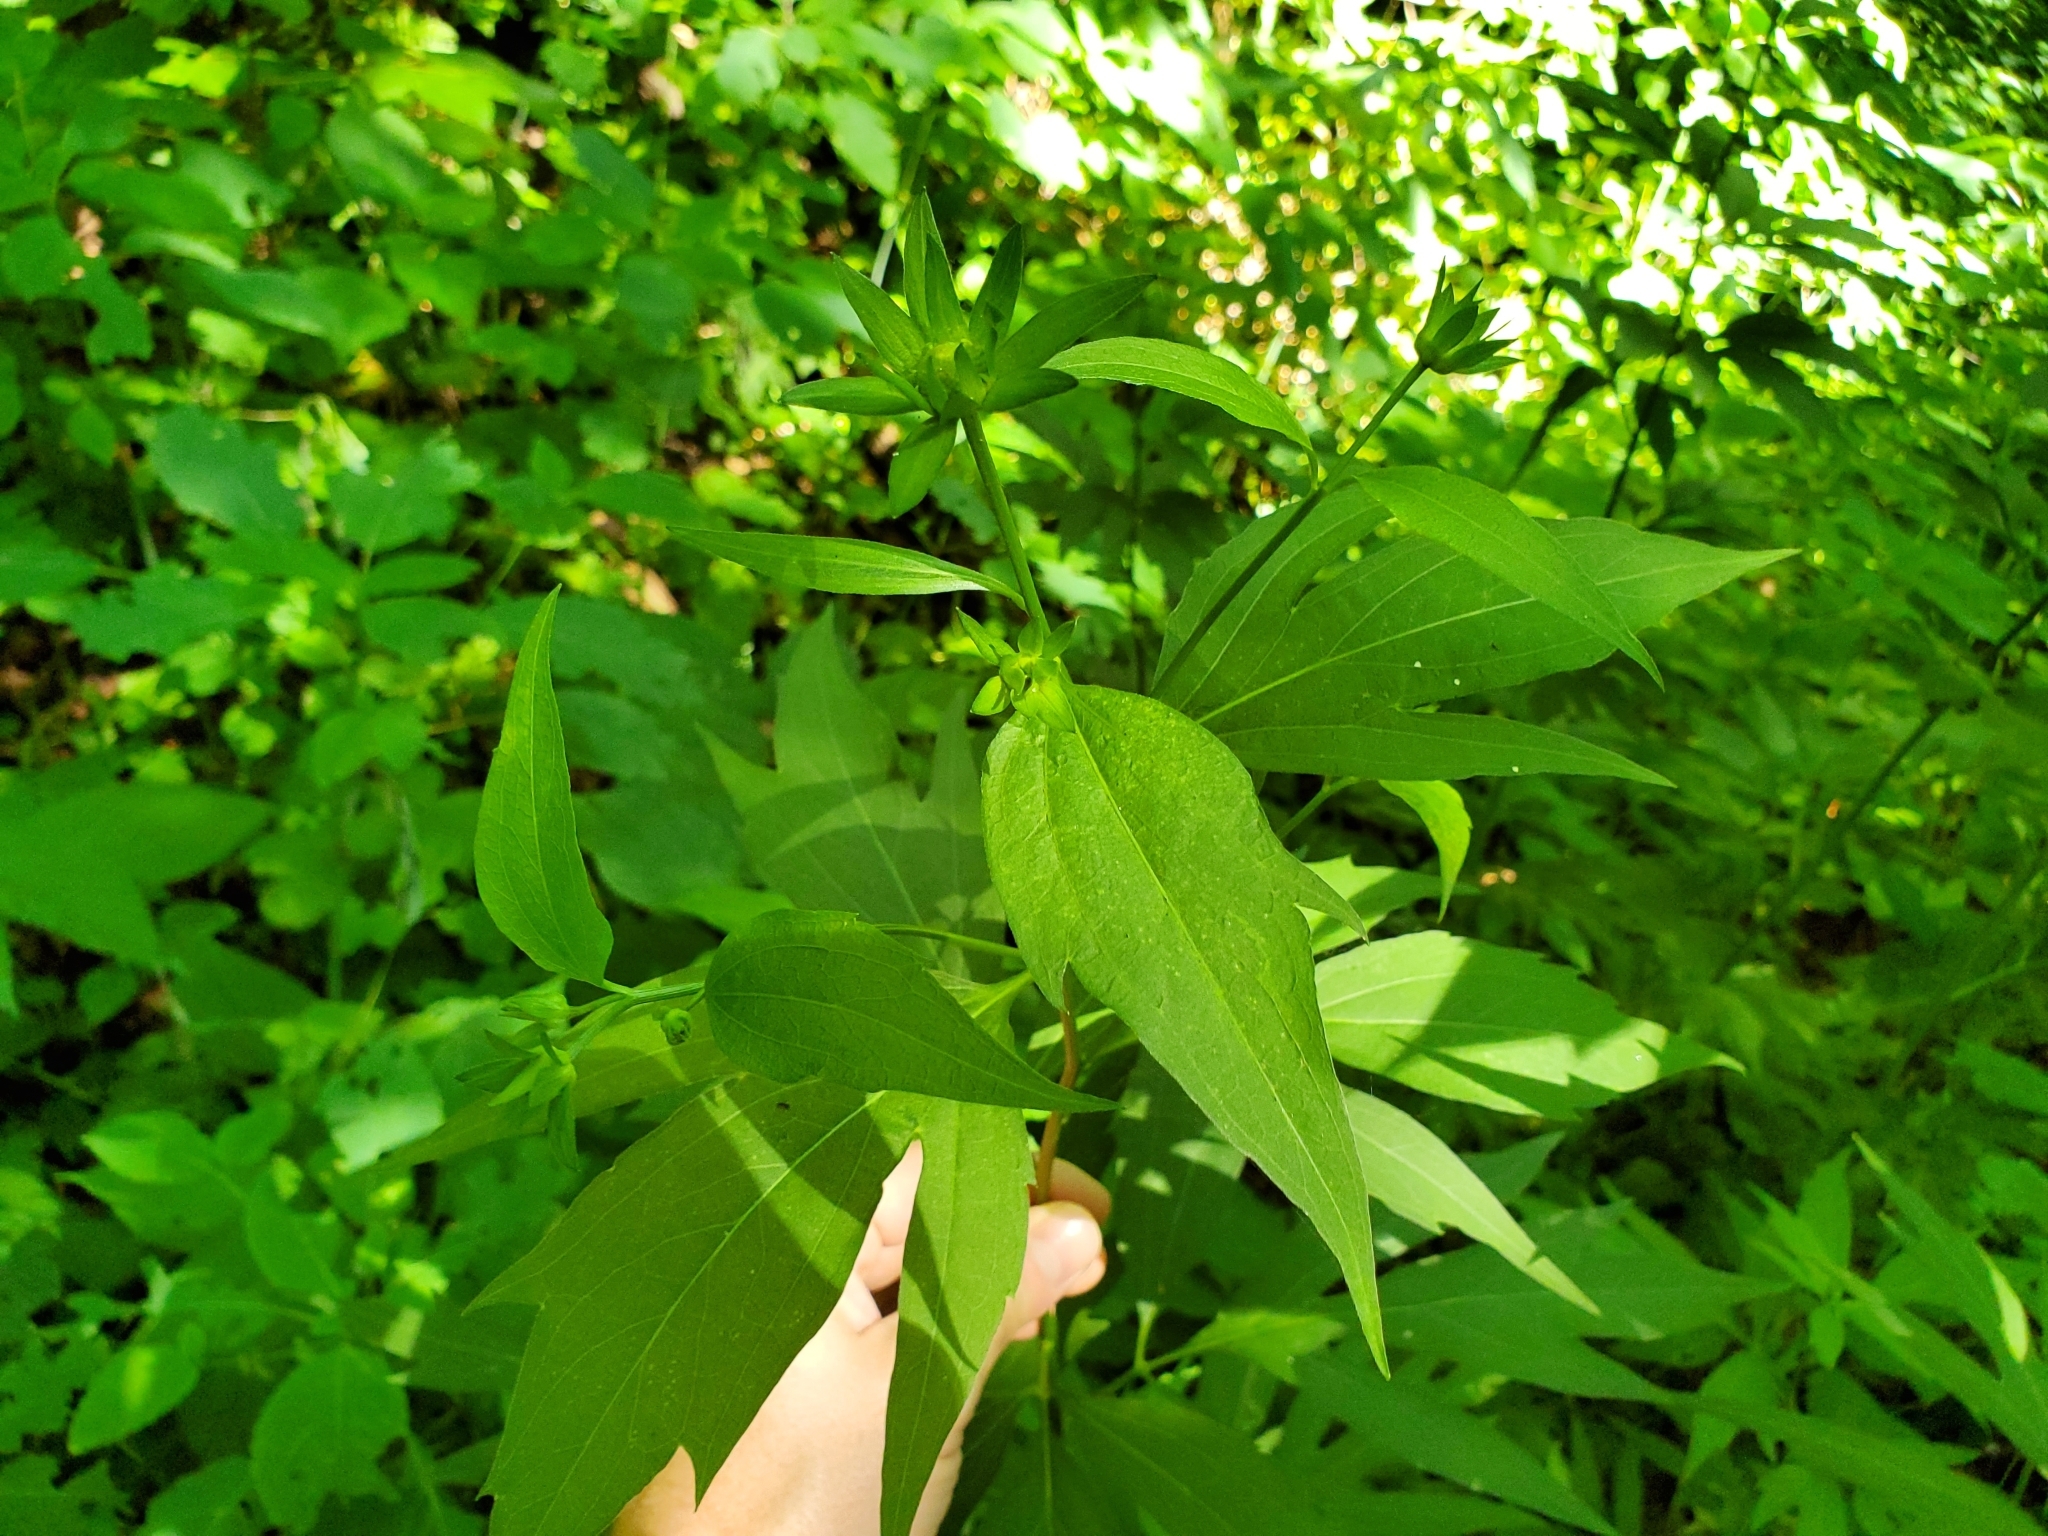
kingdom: Plantae
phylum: Tracheophyta
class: Magnoliopsida
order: Asterales
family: Asteraceae
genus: Rudbeckia
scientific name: Rudbeckia laciniata
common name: Coneflower
